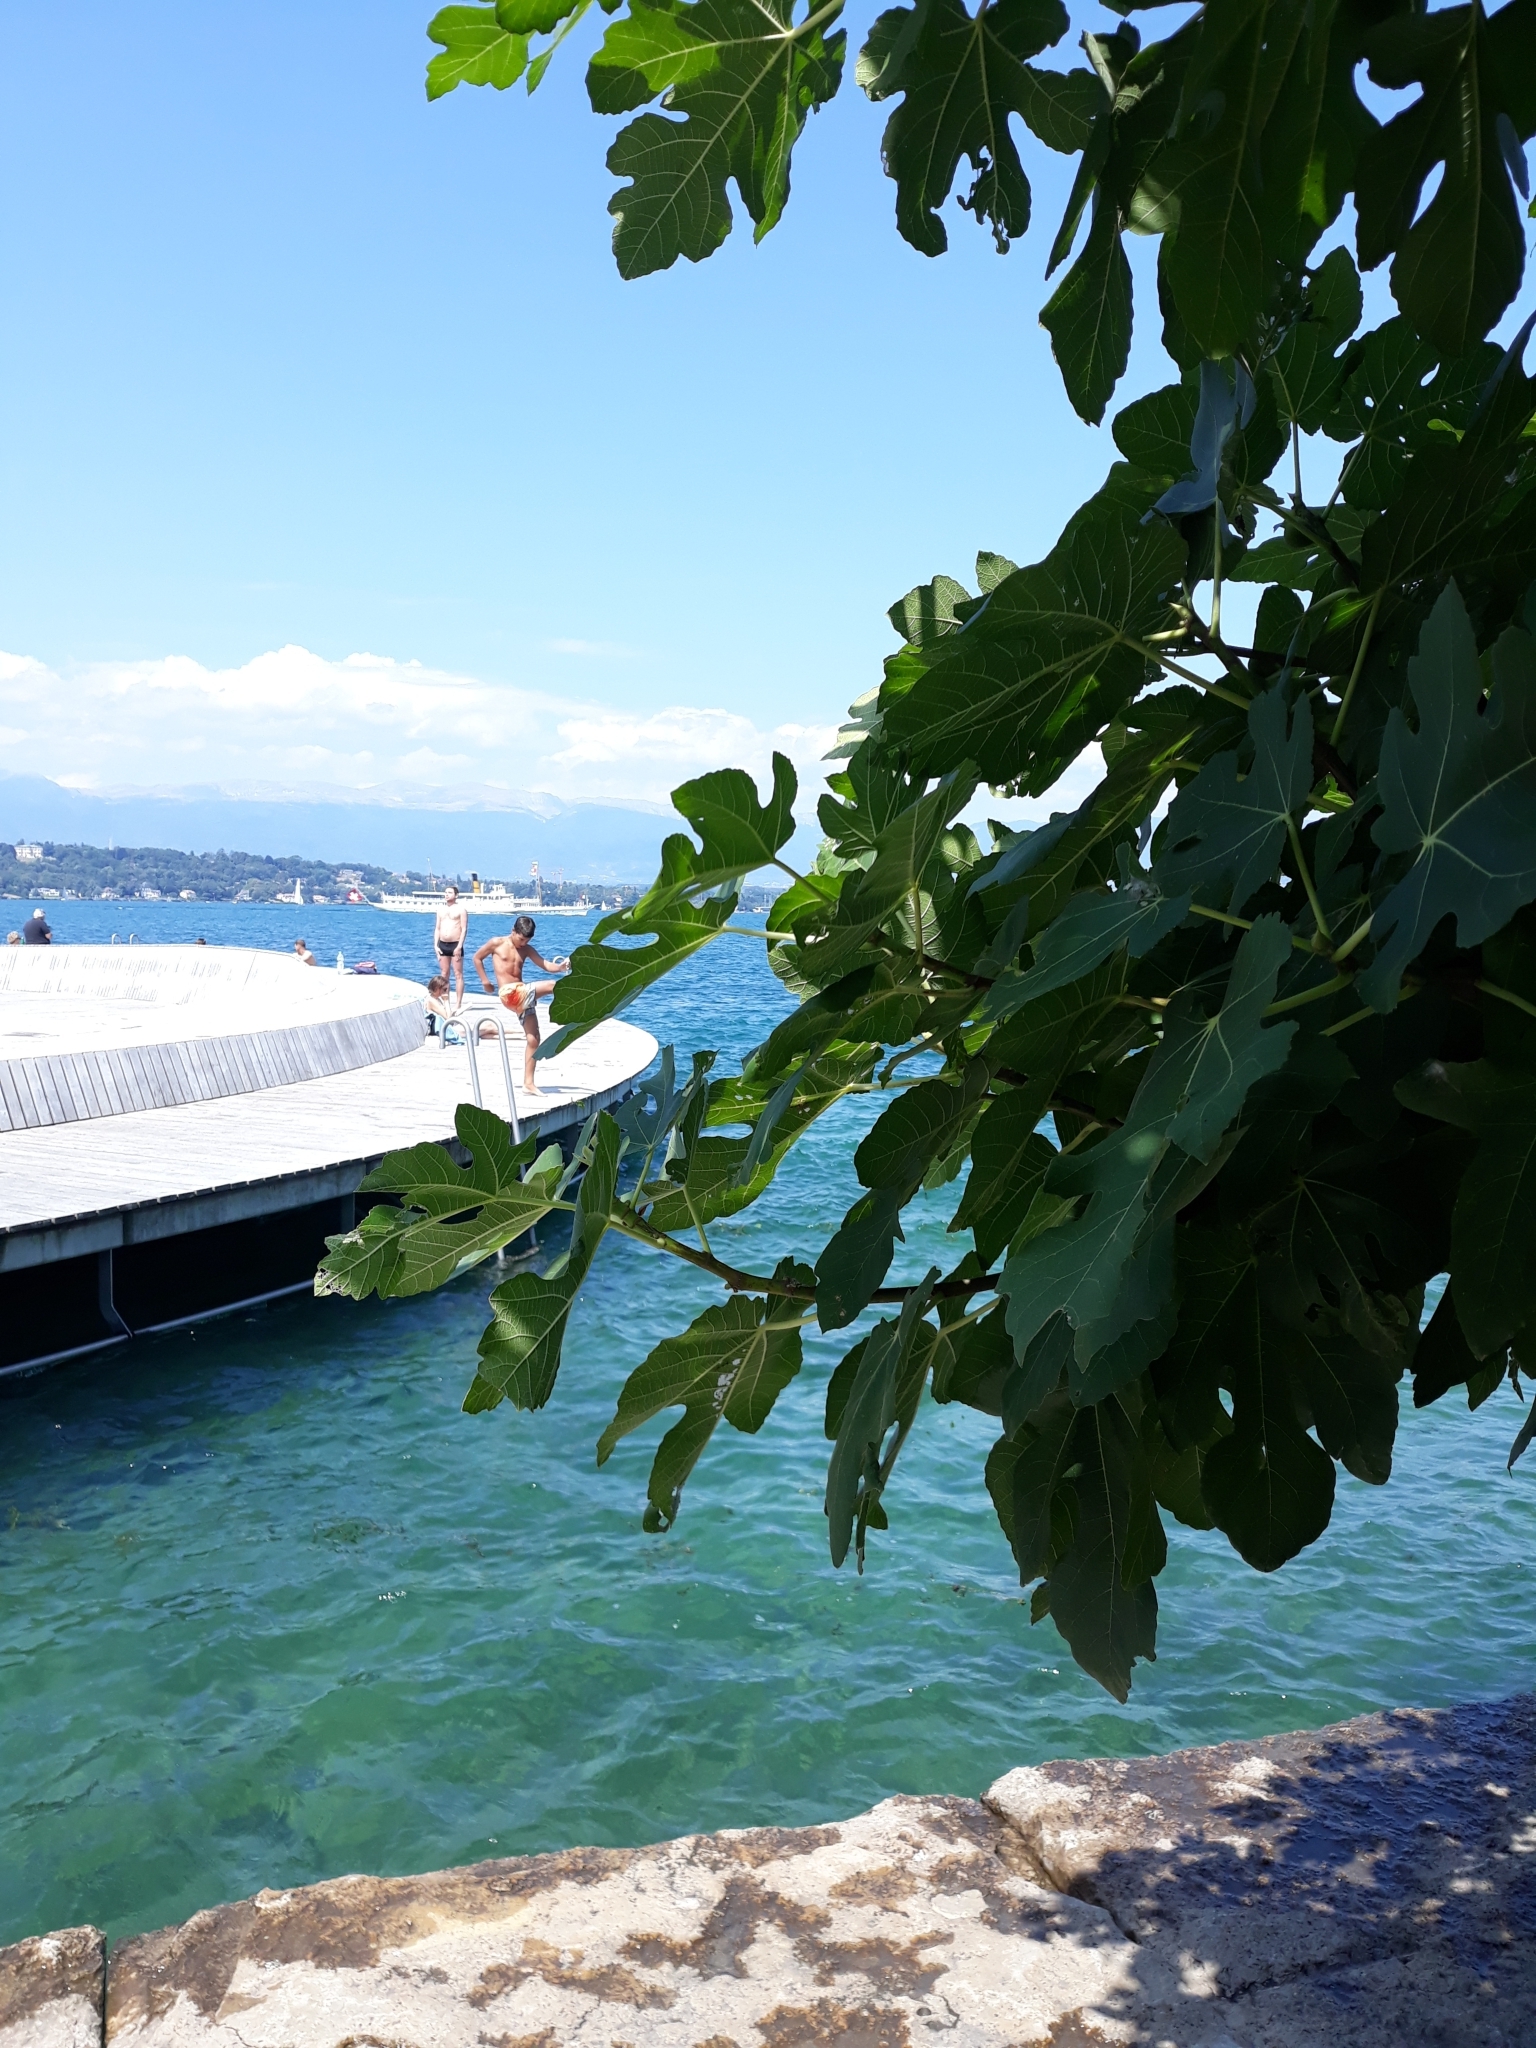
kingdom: Plantae
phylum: Tracheophyta
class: Magnoliopsida
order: Rosales
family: Moraceae
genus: Ficus
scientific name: Ficus carica
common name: Fig
